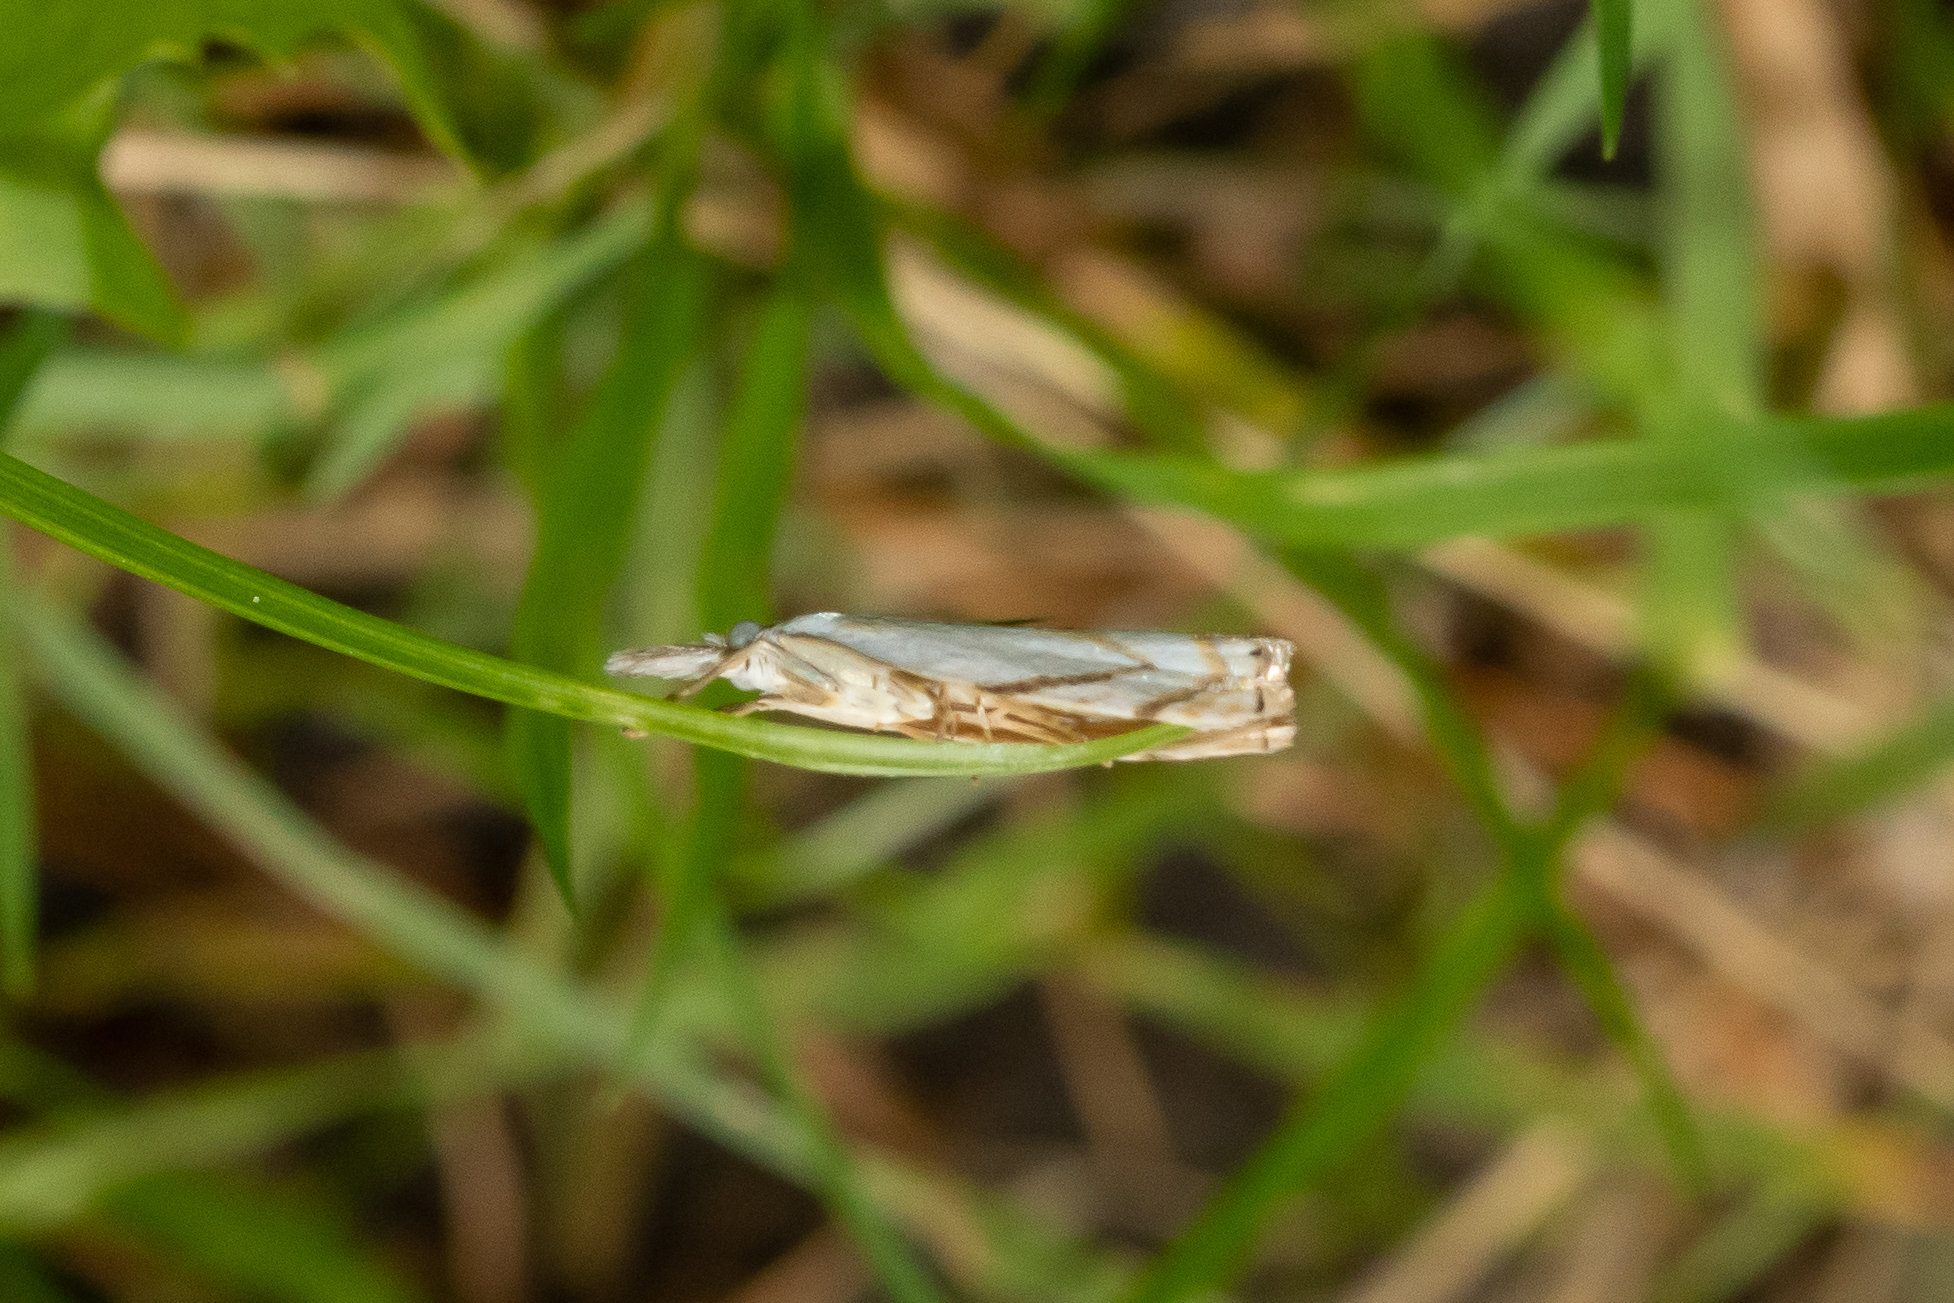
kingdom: Animalia
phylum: Arthropoda
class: Insecta
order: Lepidoptera
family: Crambidae
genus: Crambus
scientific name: Crambus albellus
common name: Small white grass-veneer
